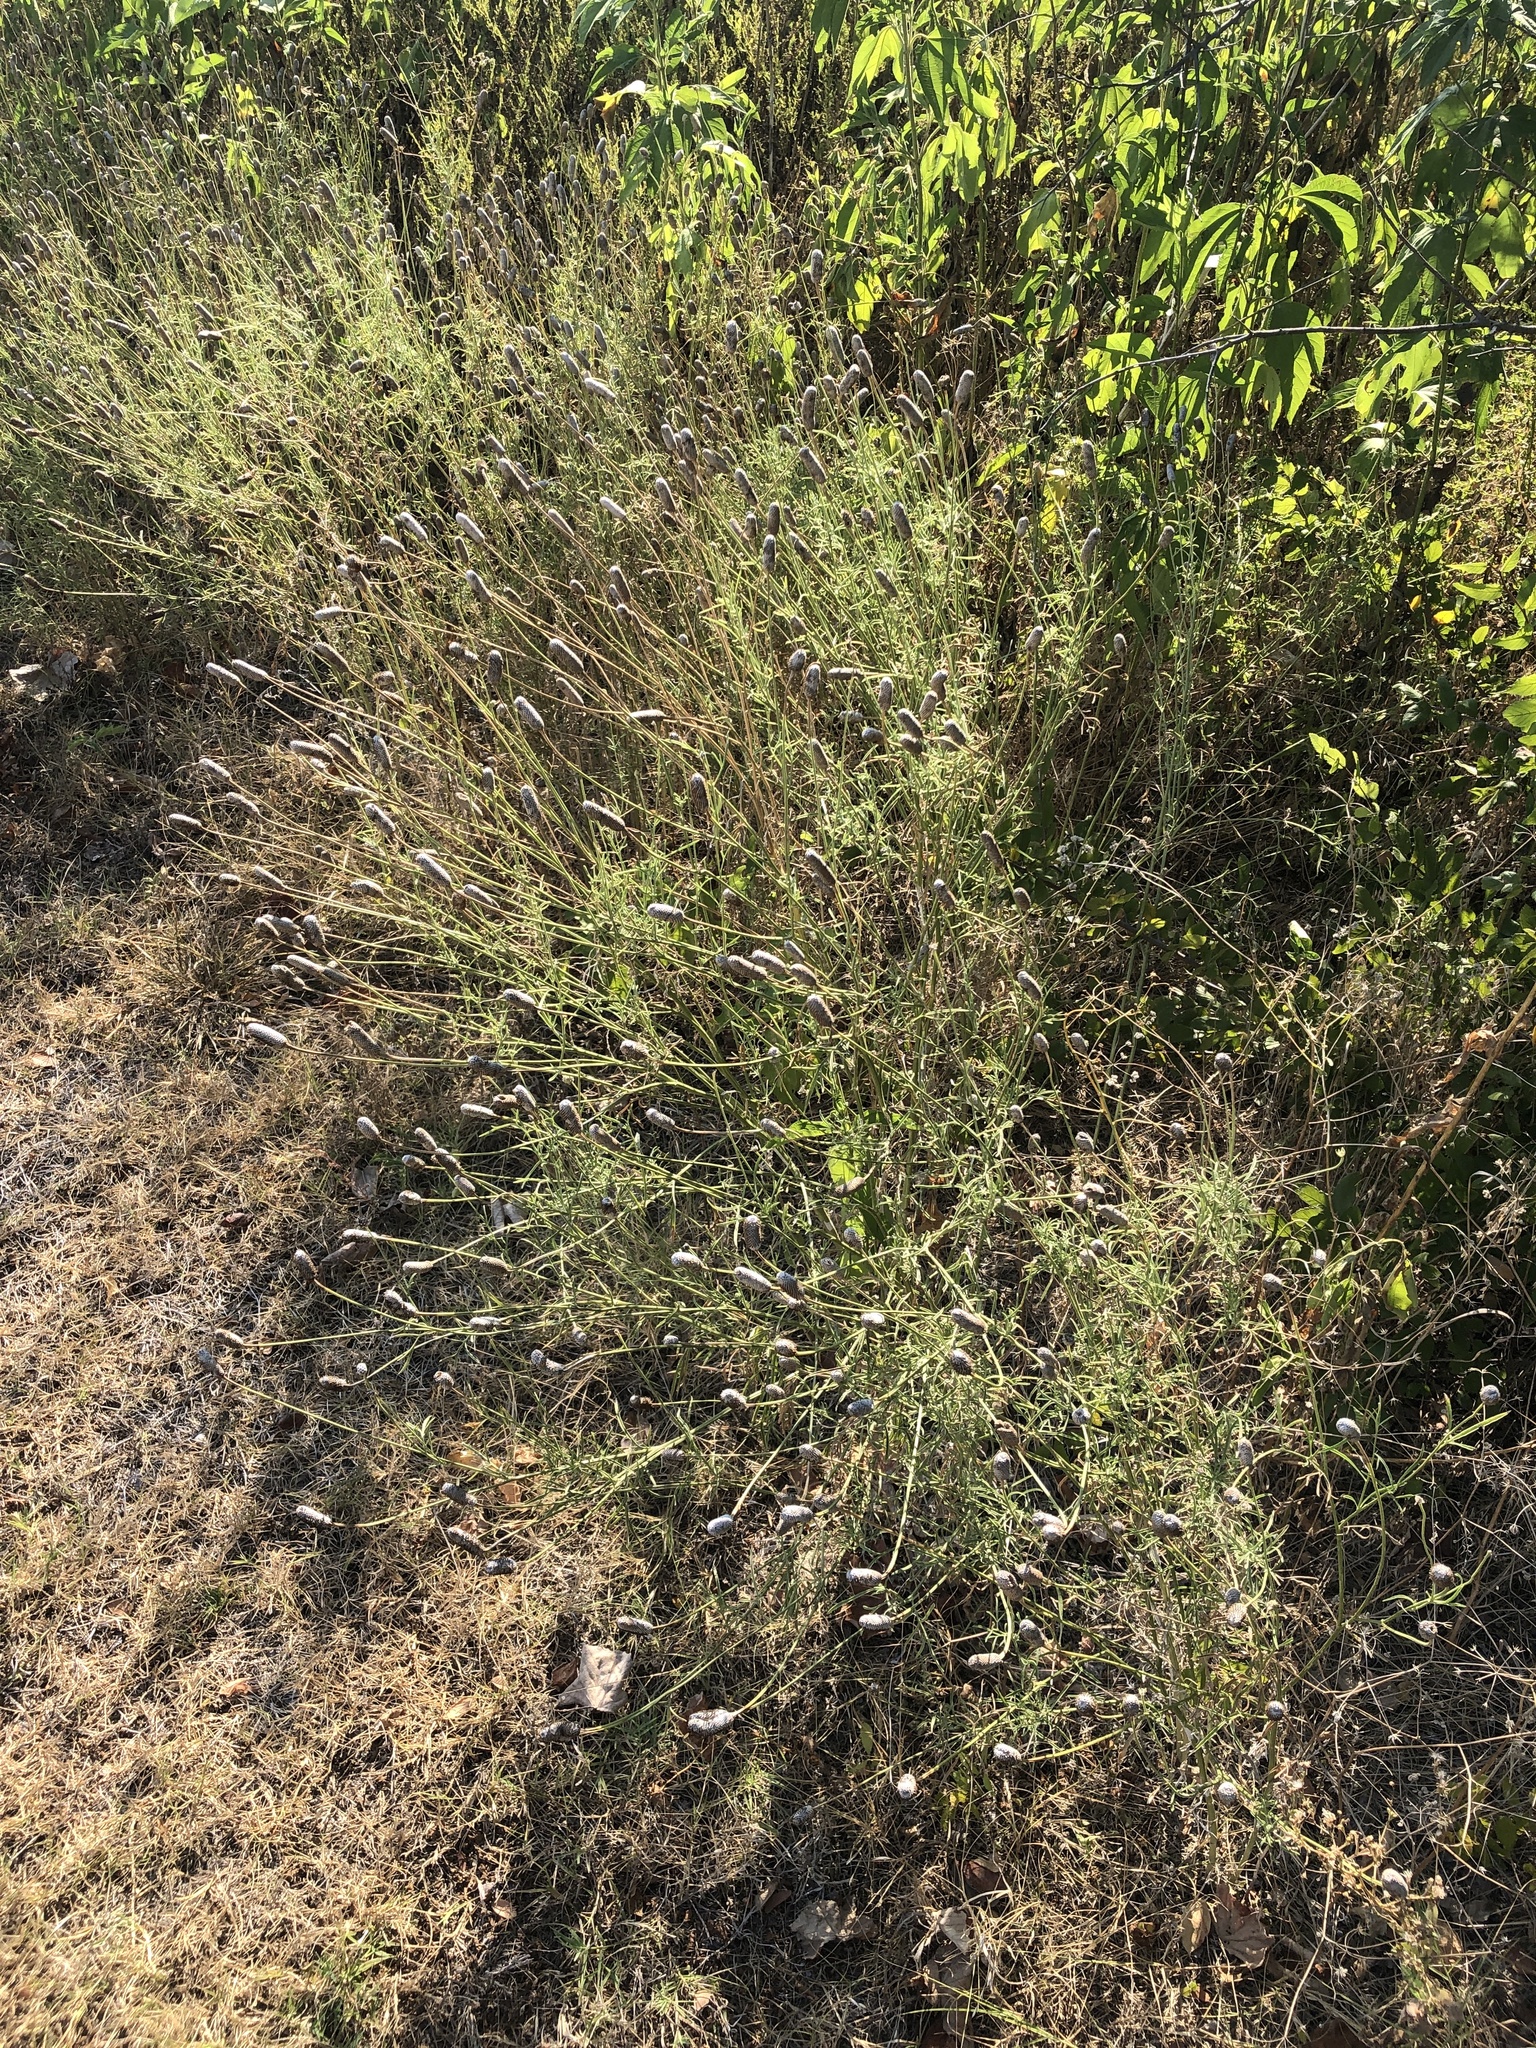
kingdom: Plantae
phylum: Tracheophyta
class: Magnoliopsida
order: Asterales
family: Asteraceae
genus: Ratibida
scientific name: Ratibida columnifera
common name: Prairie coneflower
